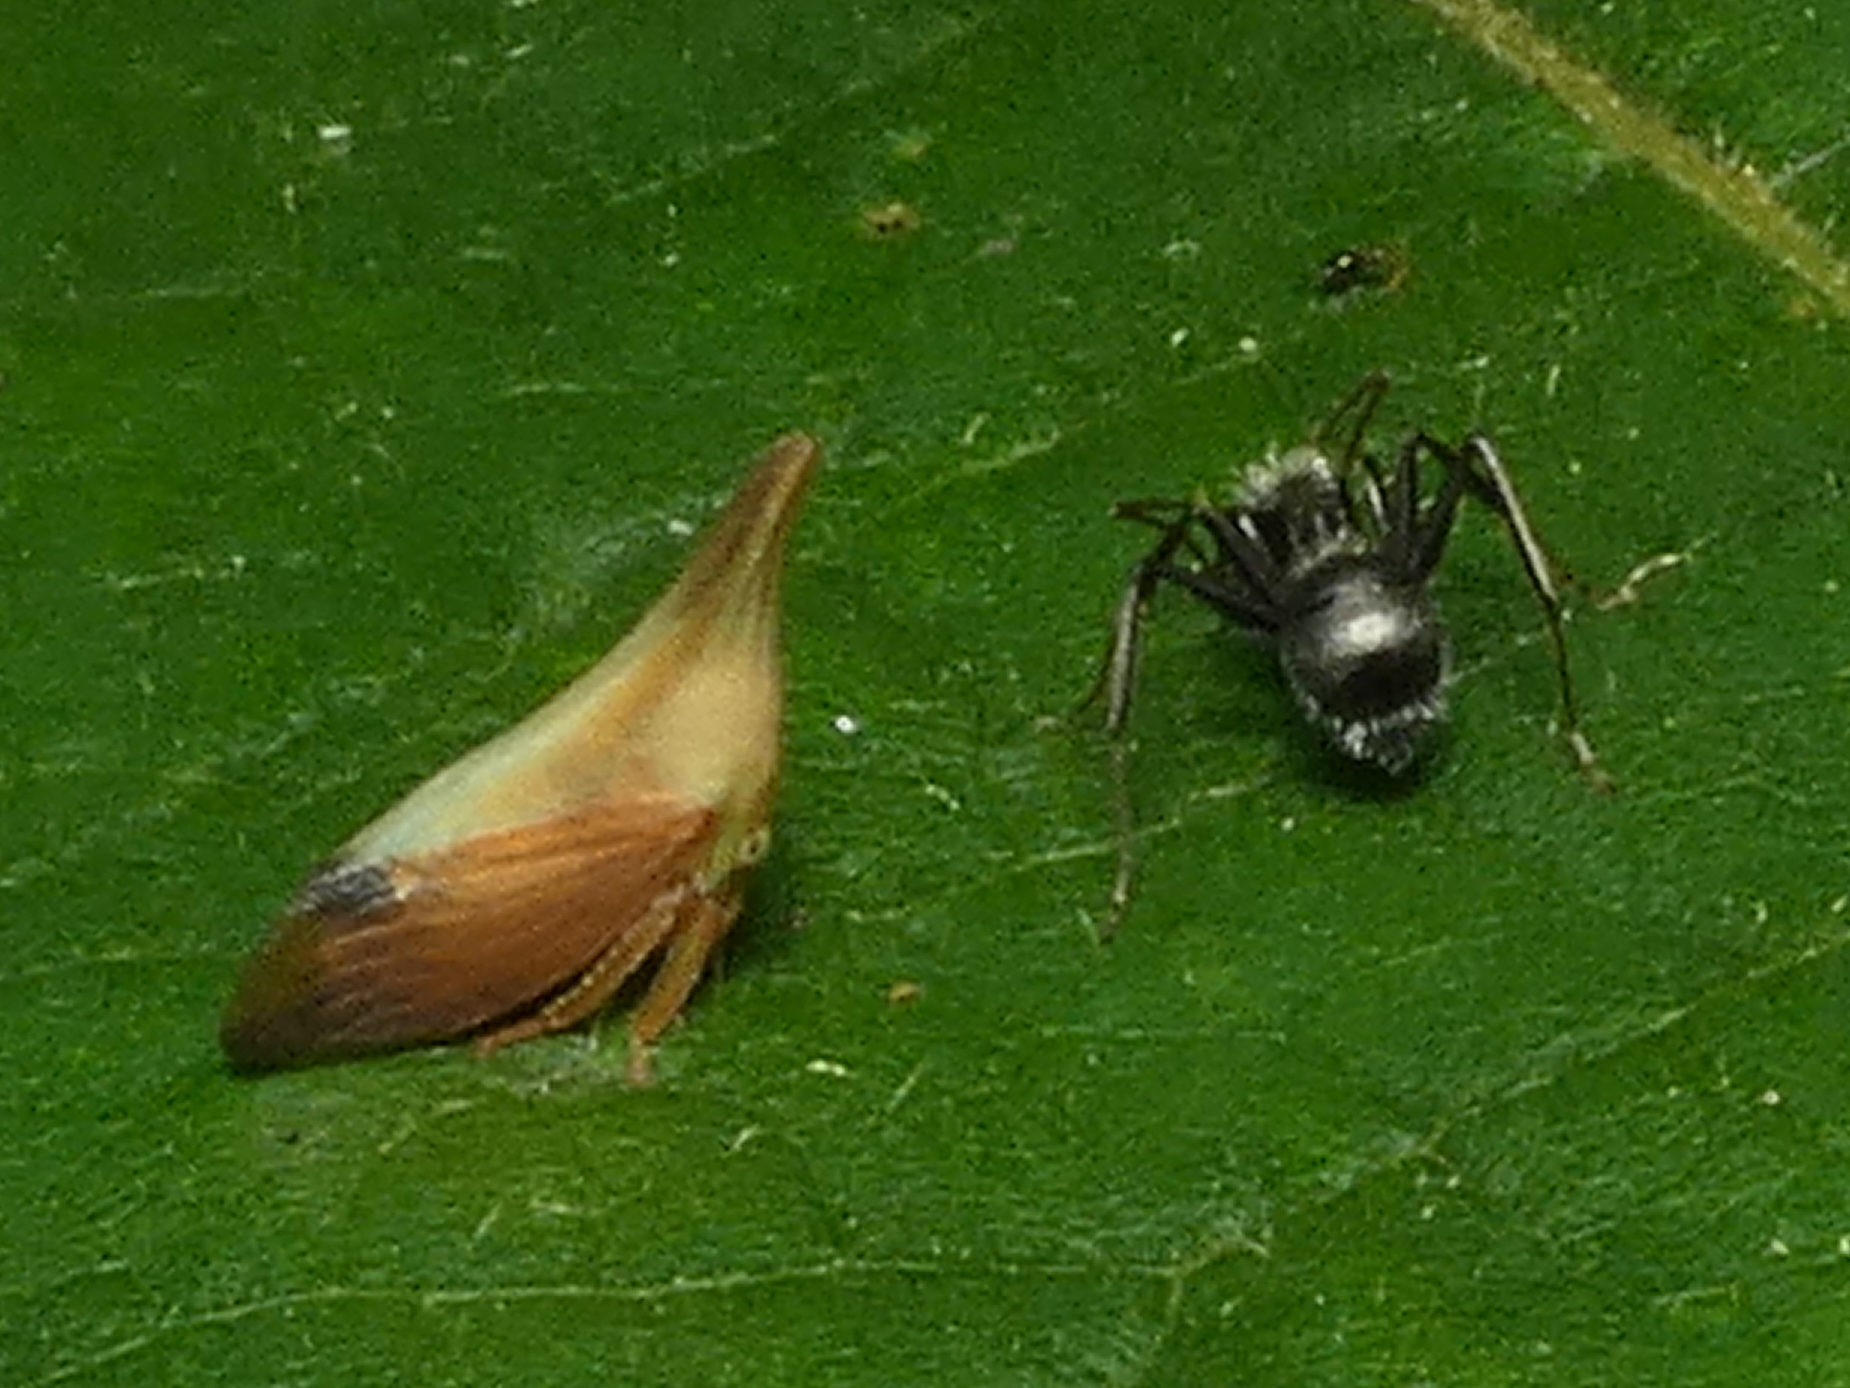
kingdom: Animalia
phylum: Arthropoda
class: Insecta
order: Hemiptera
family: Membracidae
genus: Enchenopa
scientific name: Enchenopa concolor
